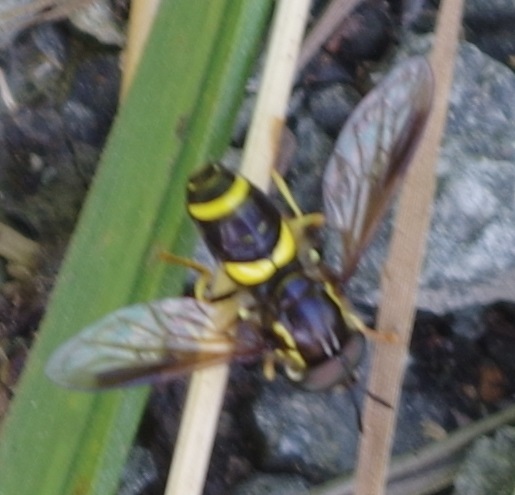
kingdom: Animalia
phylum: Arthropoda
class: Insecta
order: Diptera
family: Syrphidae
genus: Chrysotoxum
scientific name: Chrysotoxum bicincta
